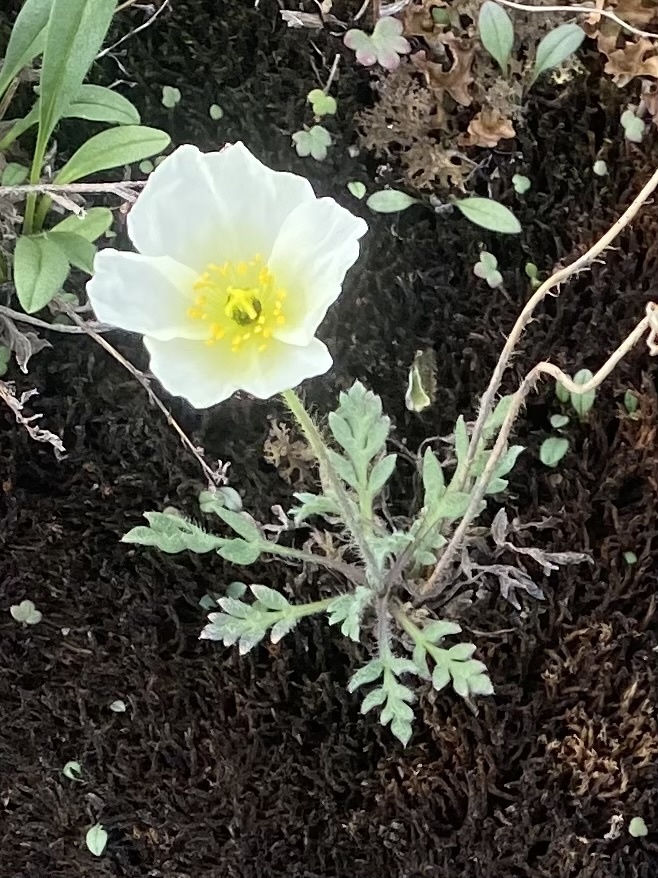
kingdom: Plantae
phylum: Tracheophyta
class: Magnoliopsida
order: Ranunculales
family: Papaveraceae
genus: Papaver
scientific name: Papaver pulvinatum
